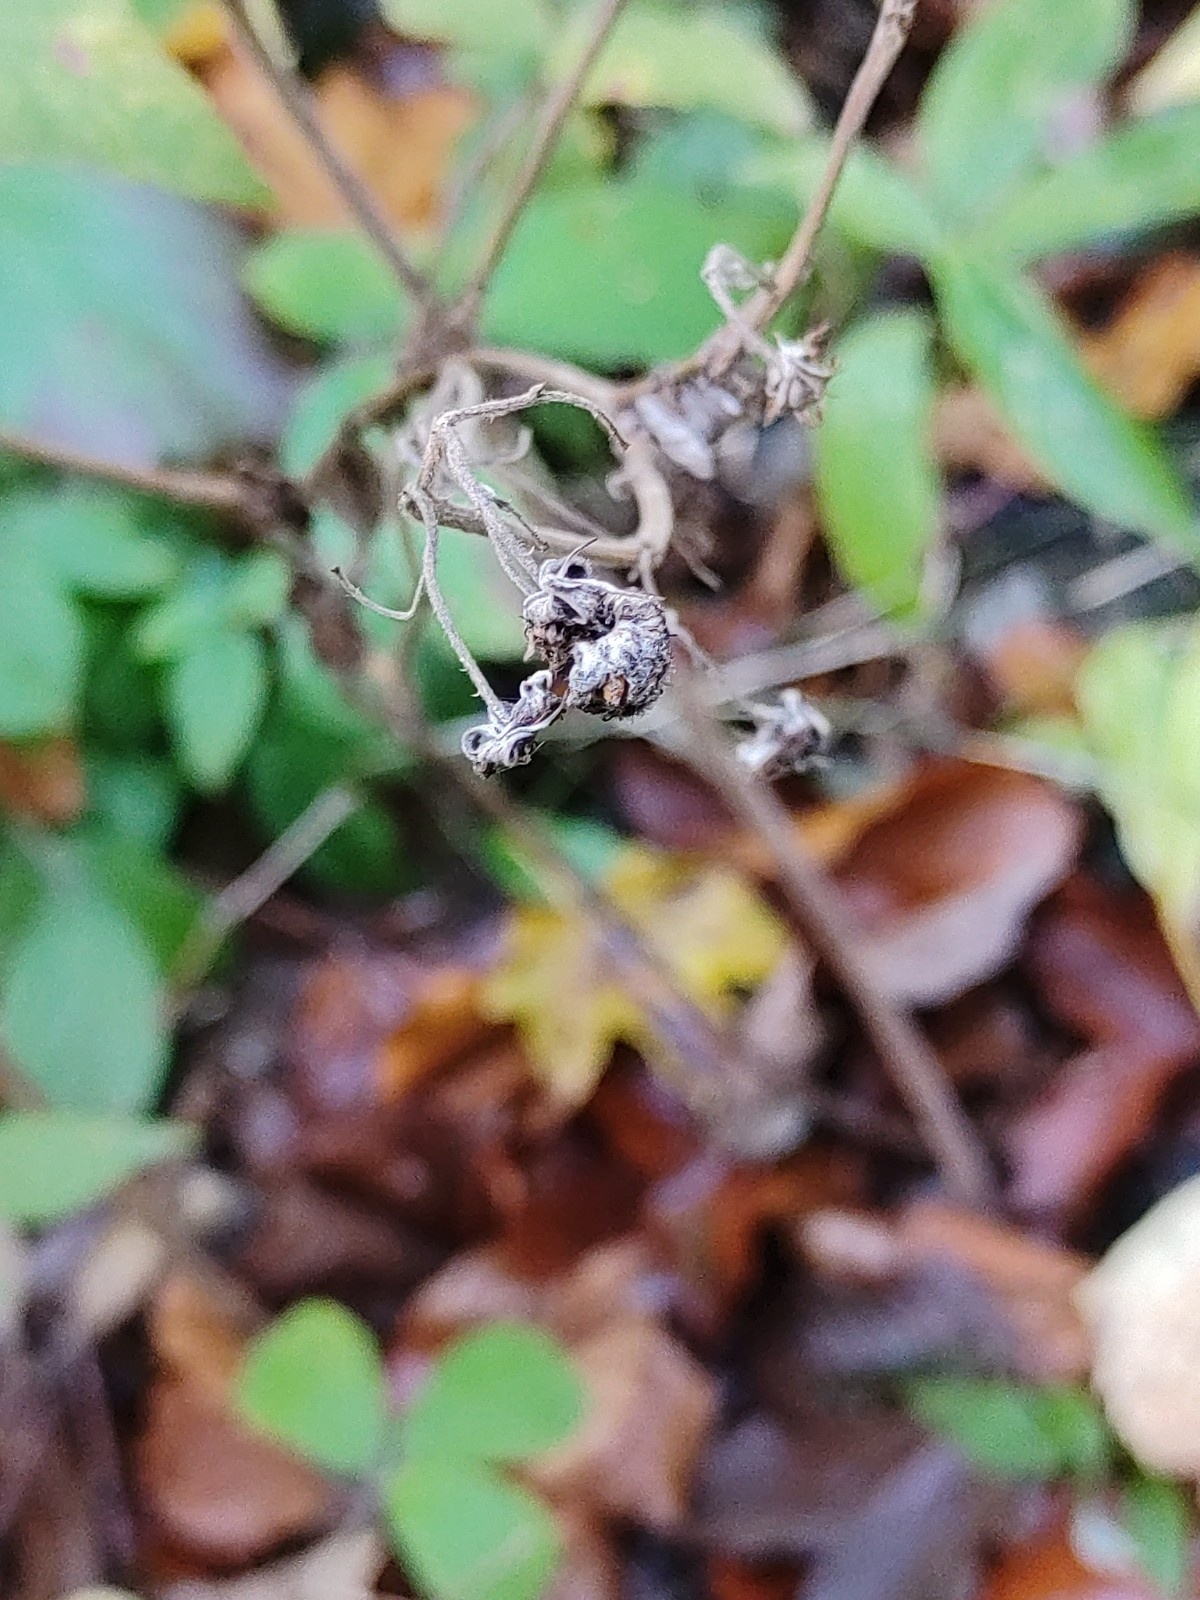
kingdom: Plantae
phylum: Tracheophyta
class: Magnoliopsida
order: Rosales
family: Rosaceae
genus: Rubus
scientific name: Rubus idaeus
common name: Raspberry
